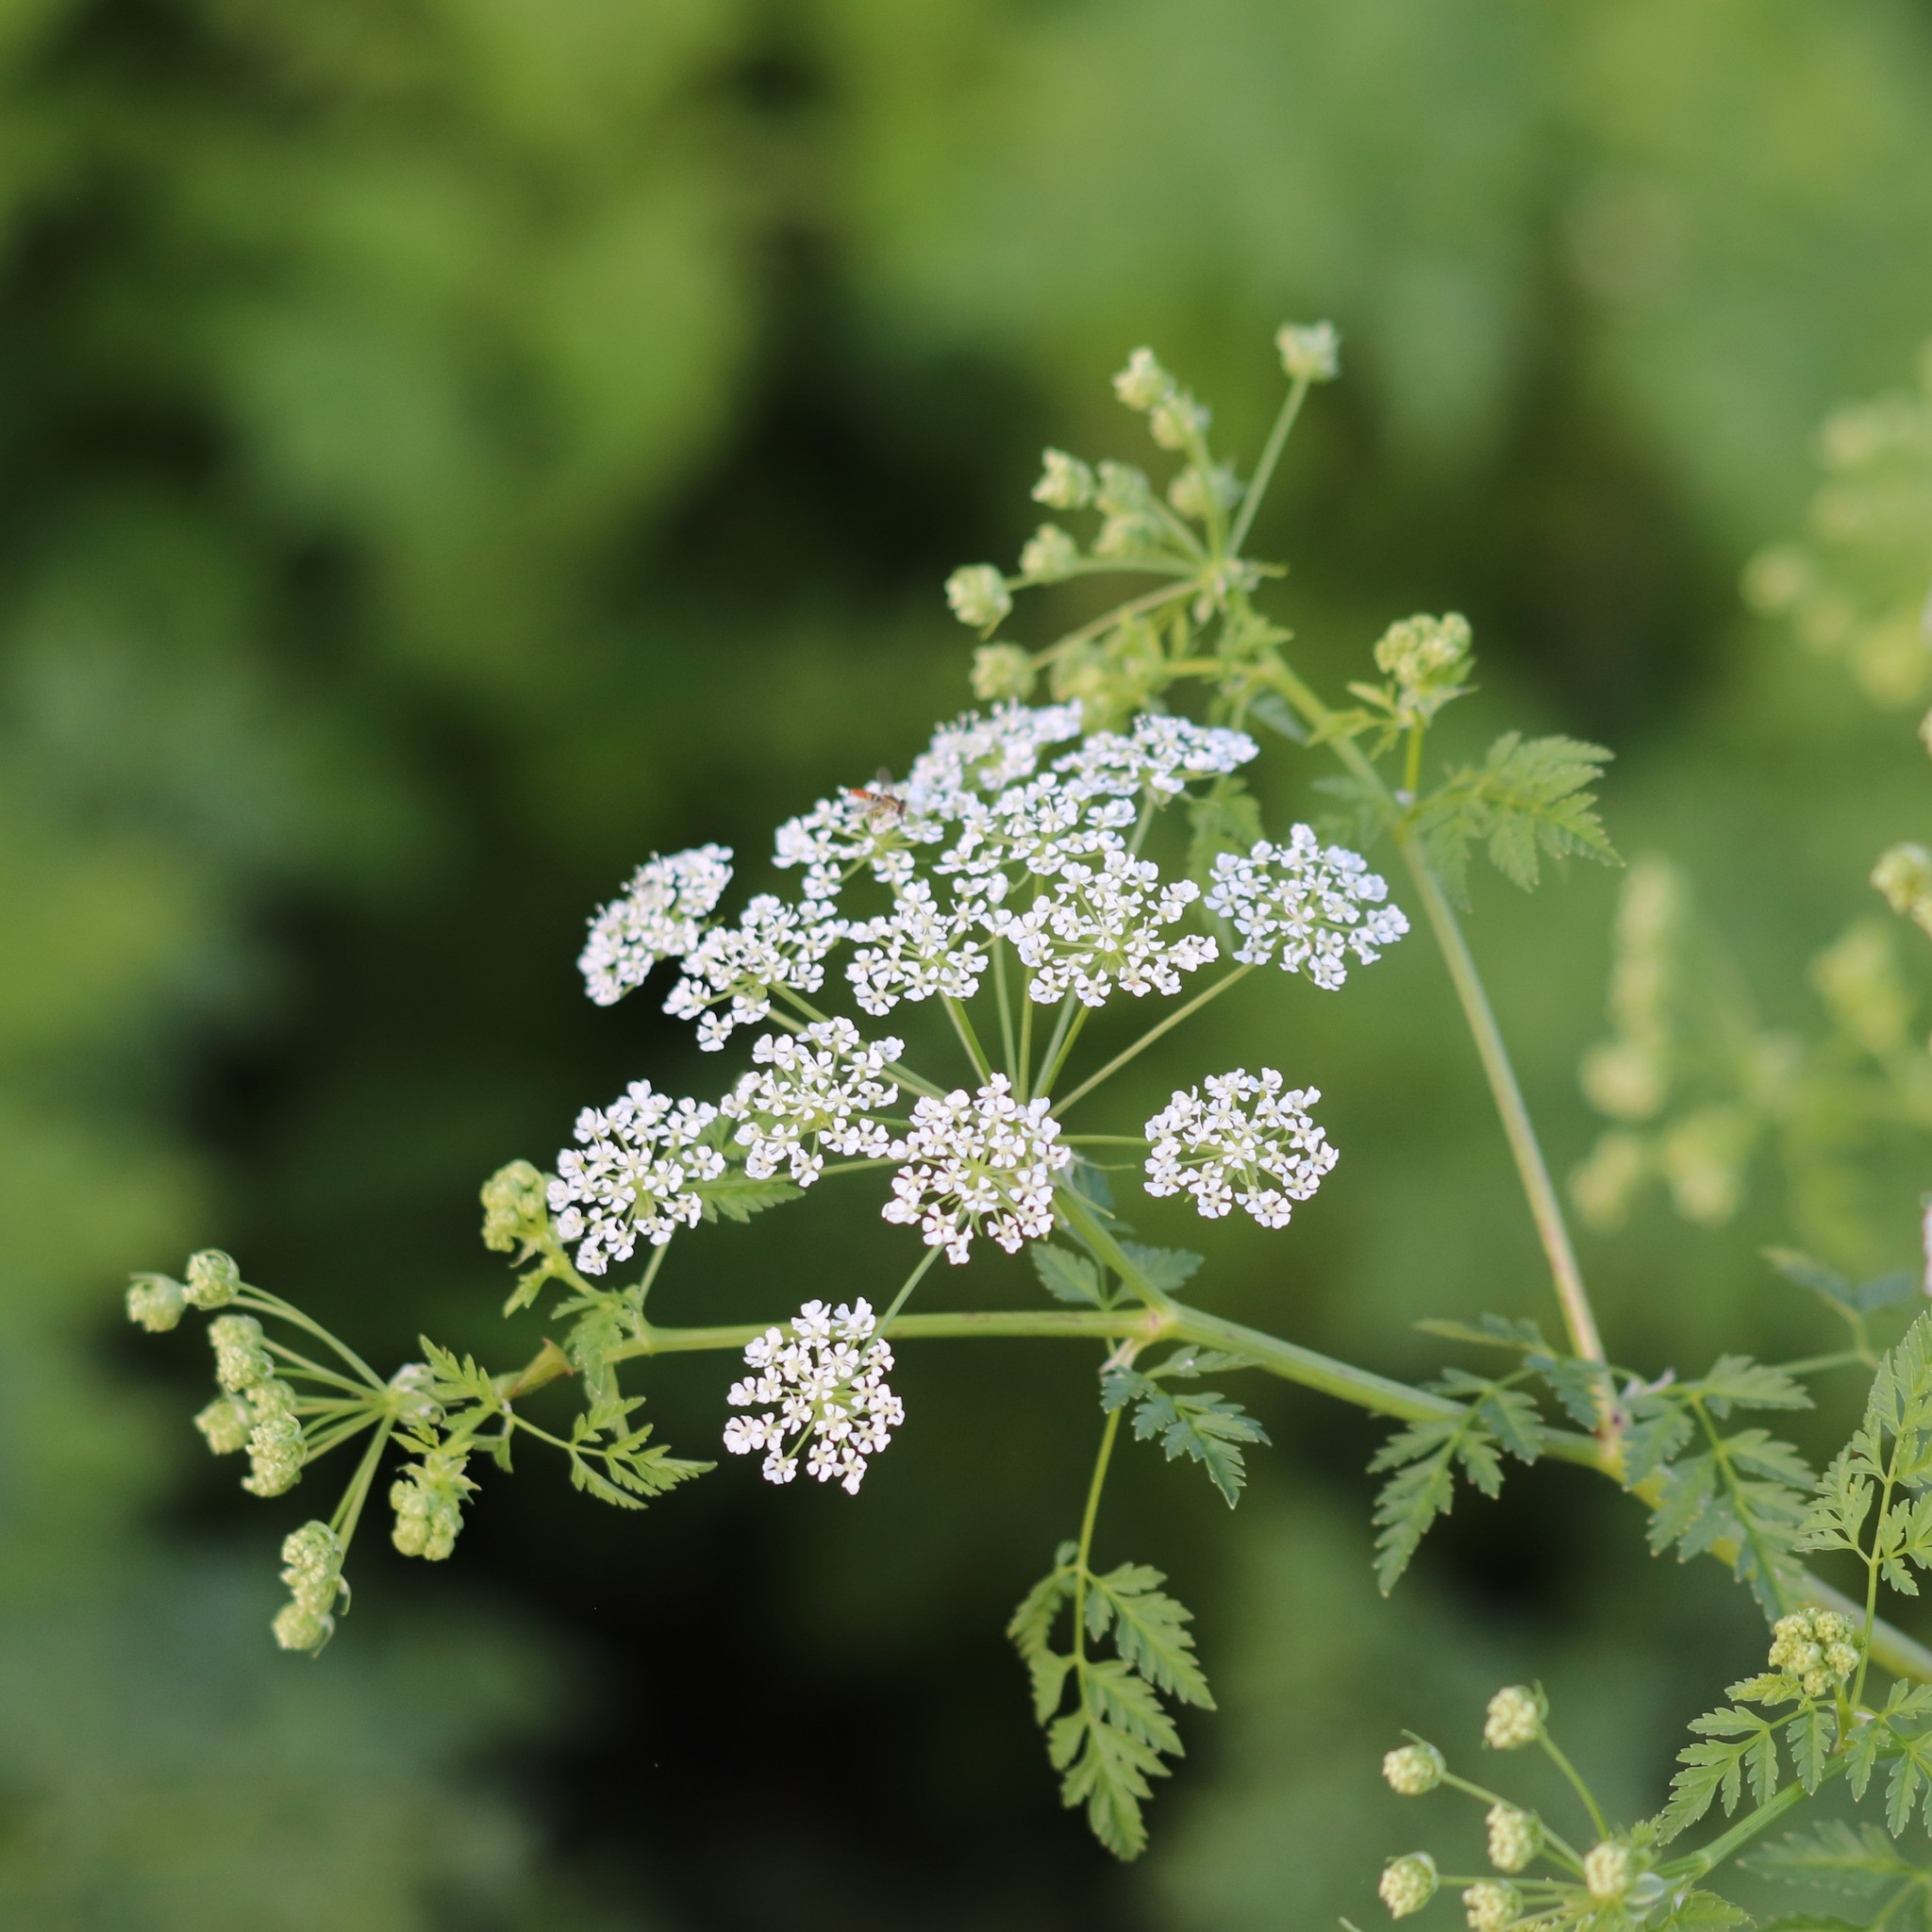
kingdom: Plantae
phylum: Tracheophyta
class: Magnoliopsida
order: Apiales
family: Apiaceae
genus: Conium
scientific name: Conium maculatum
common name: Hemlock
